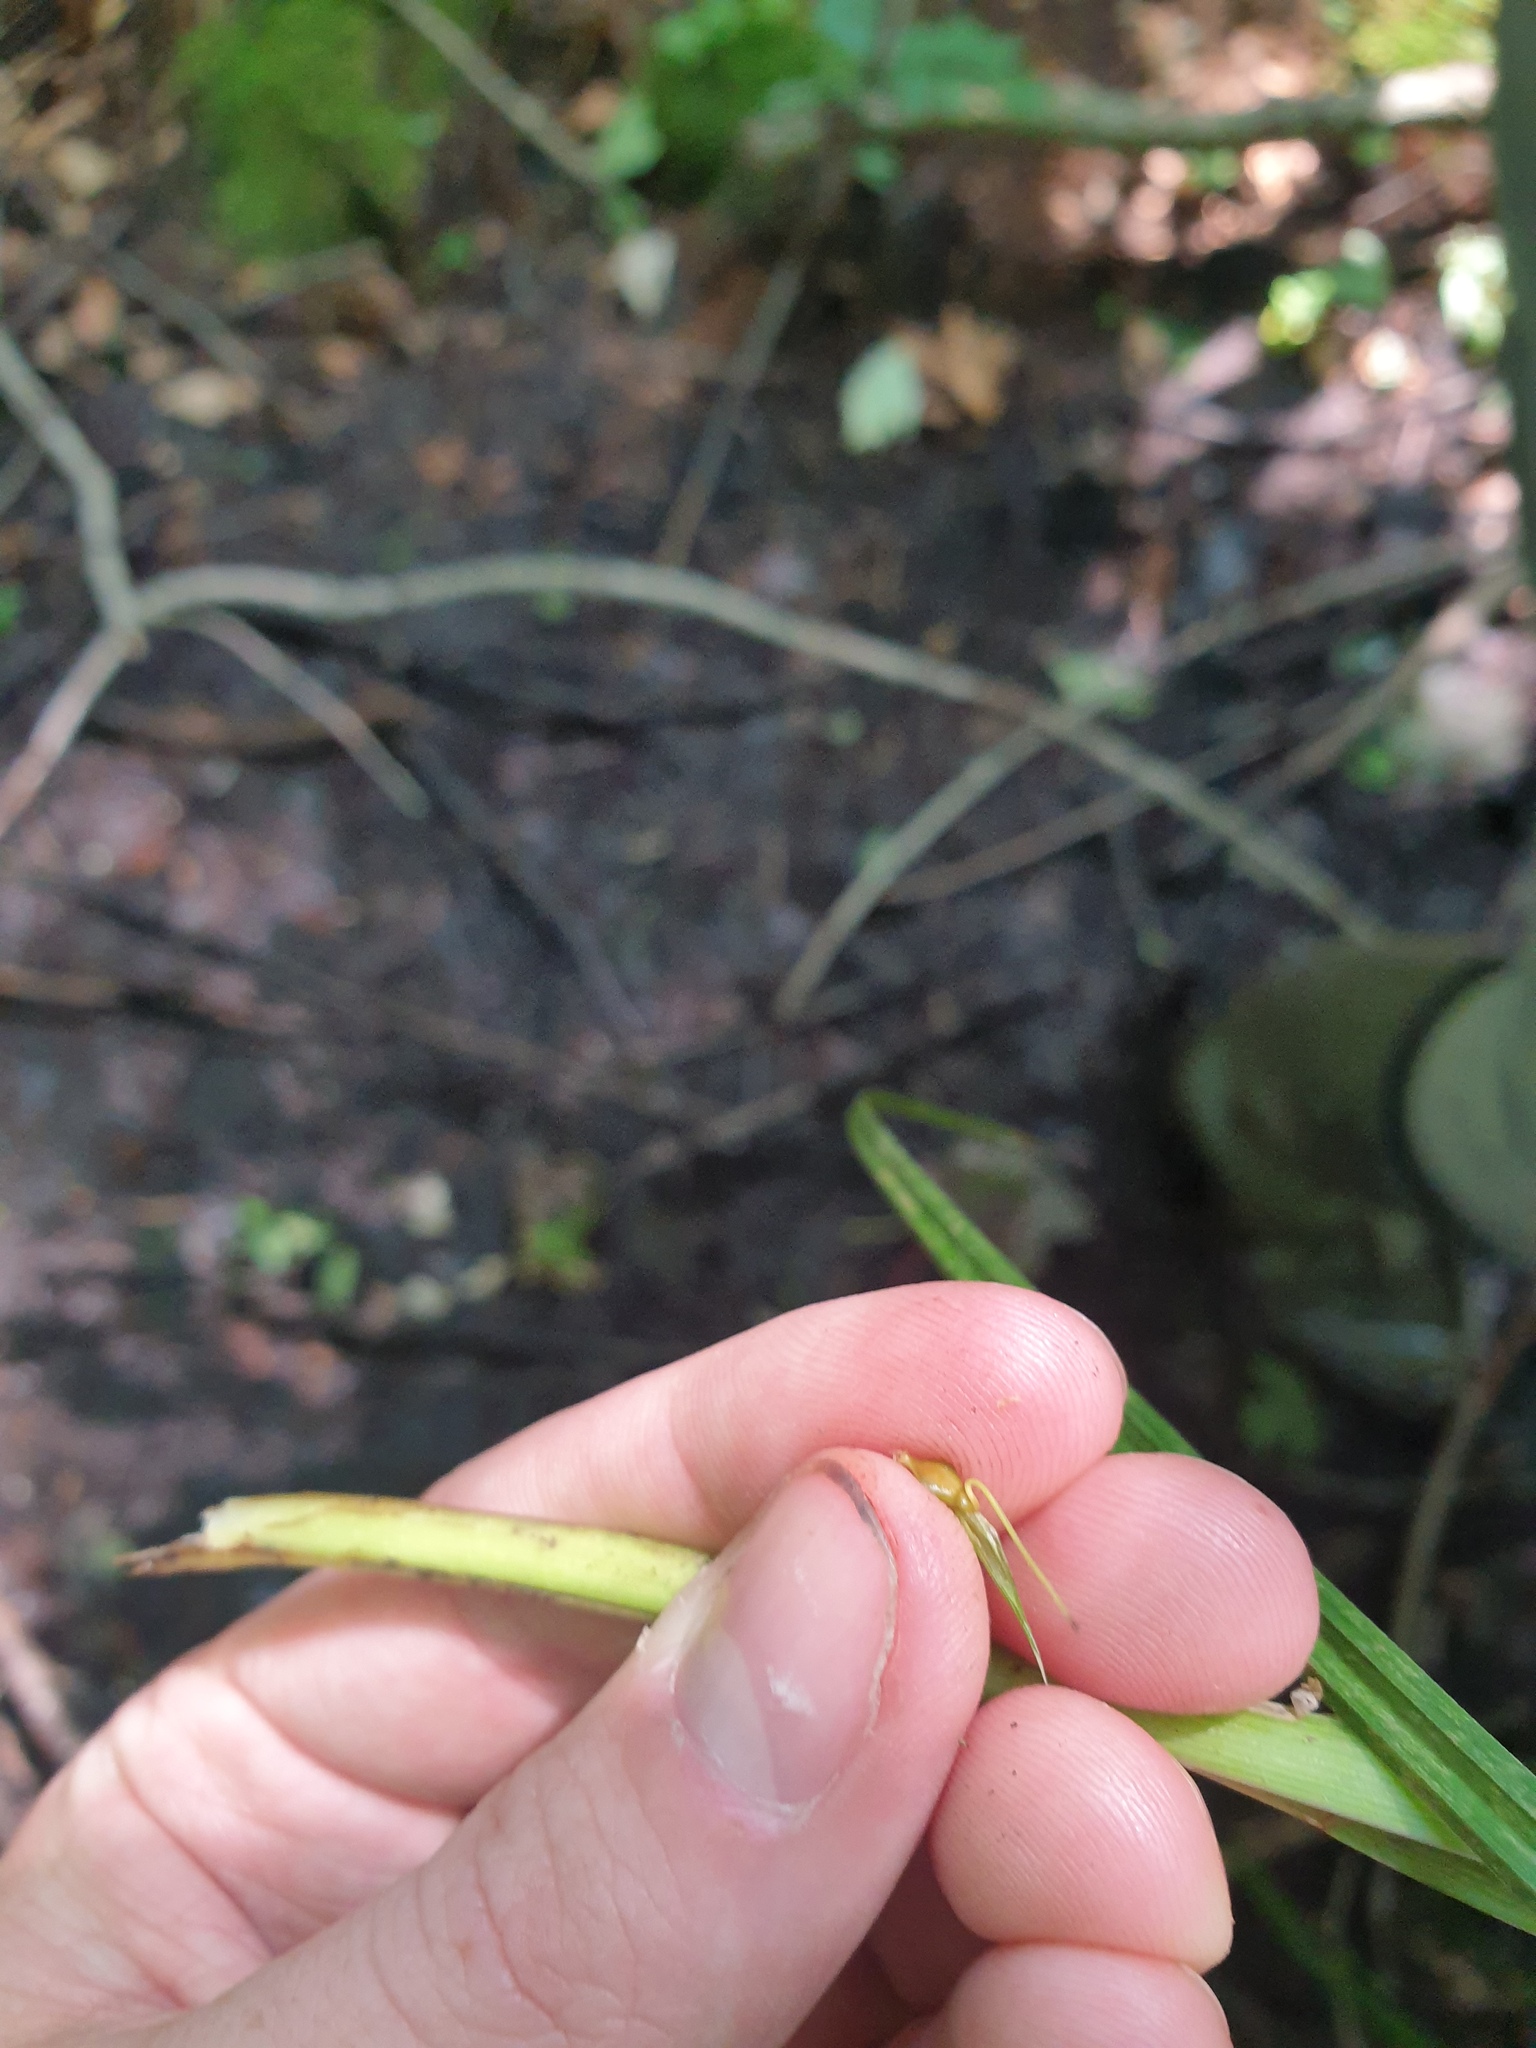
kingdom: Plantae
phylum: Tracheophyta
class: Liliopsida
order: Poales
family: Cyperaceae
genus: Carex
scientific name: Carex lupulina
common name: Hop sedge
